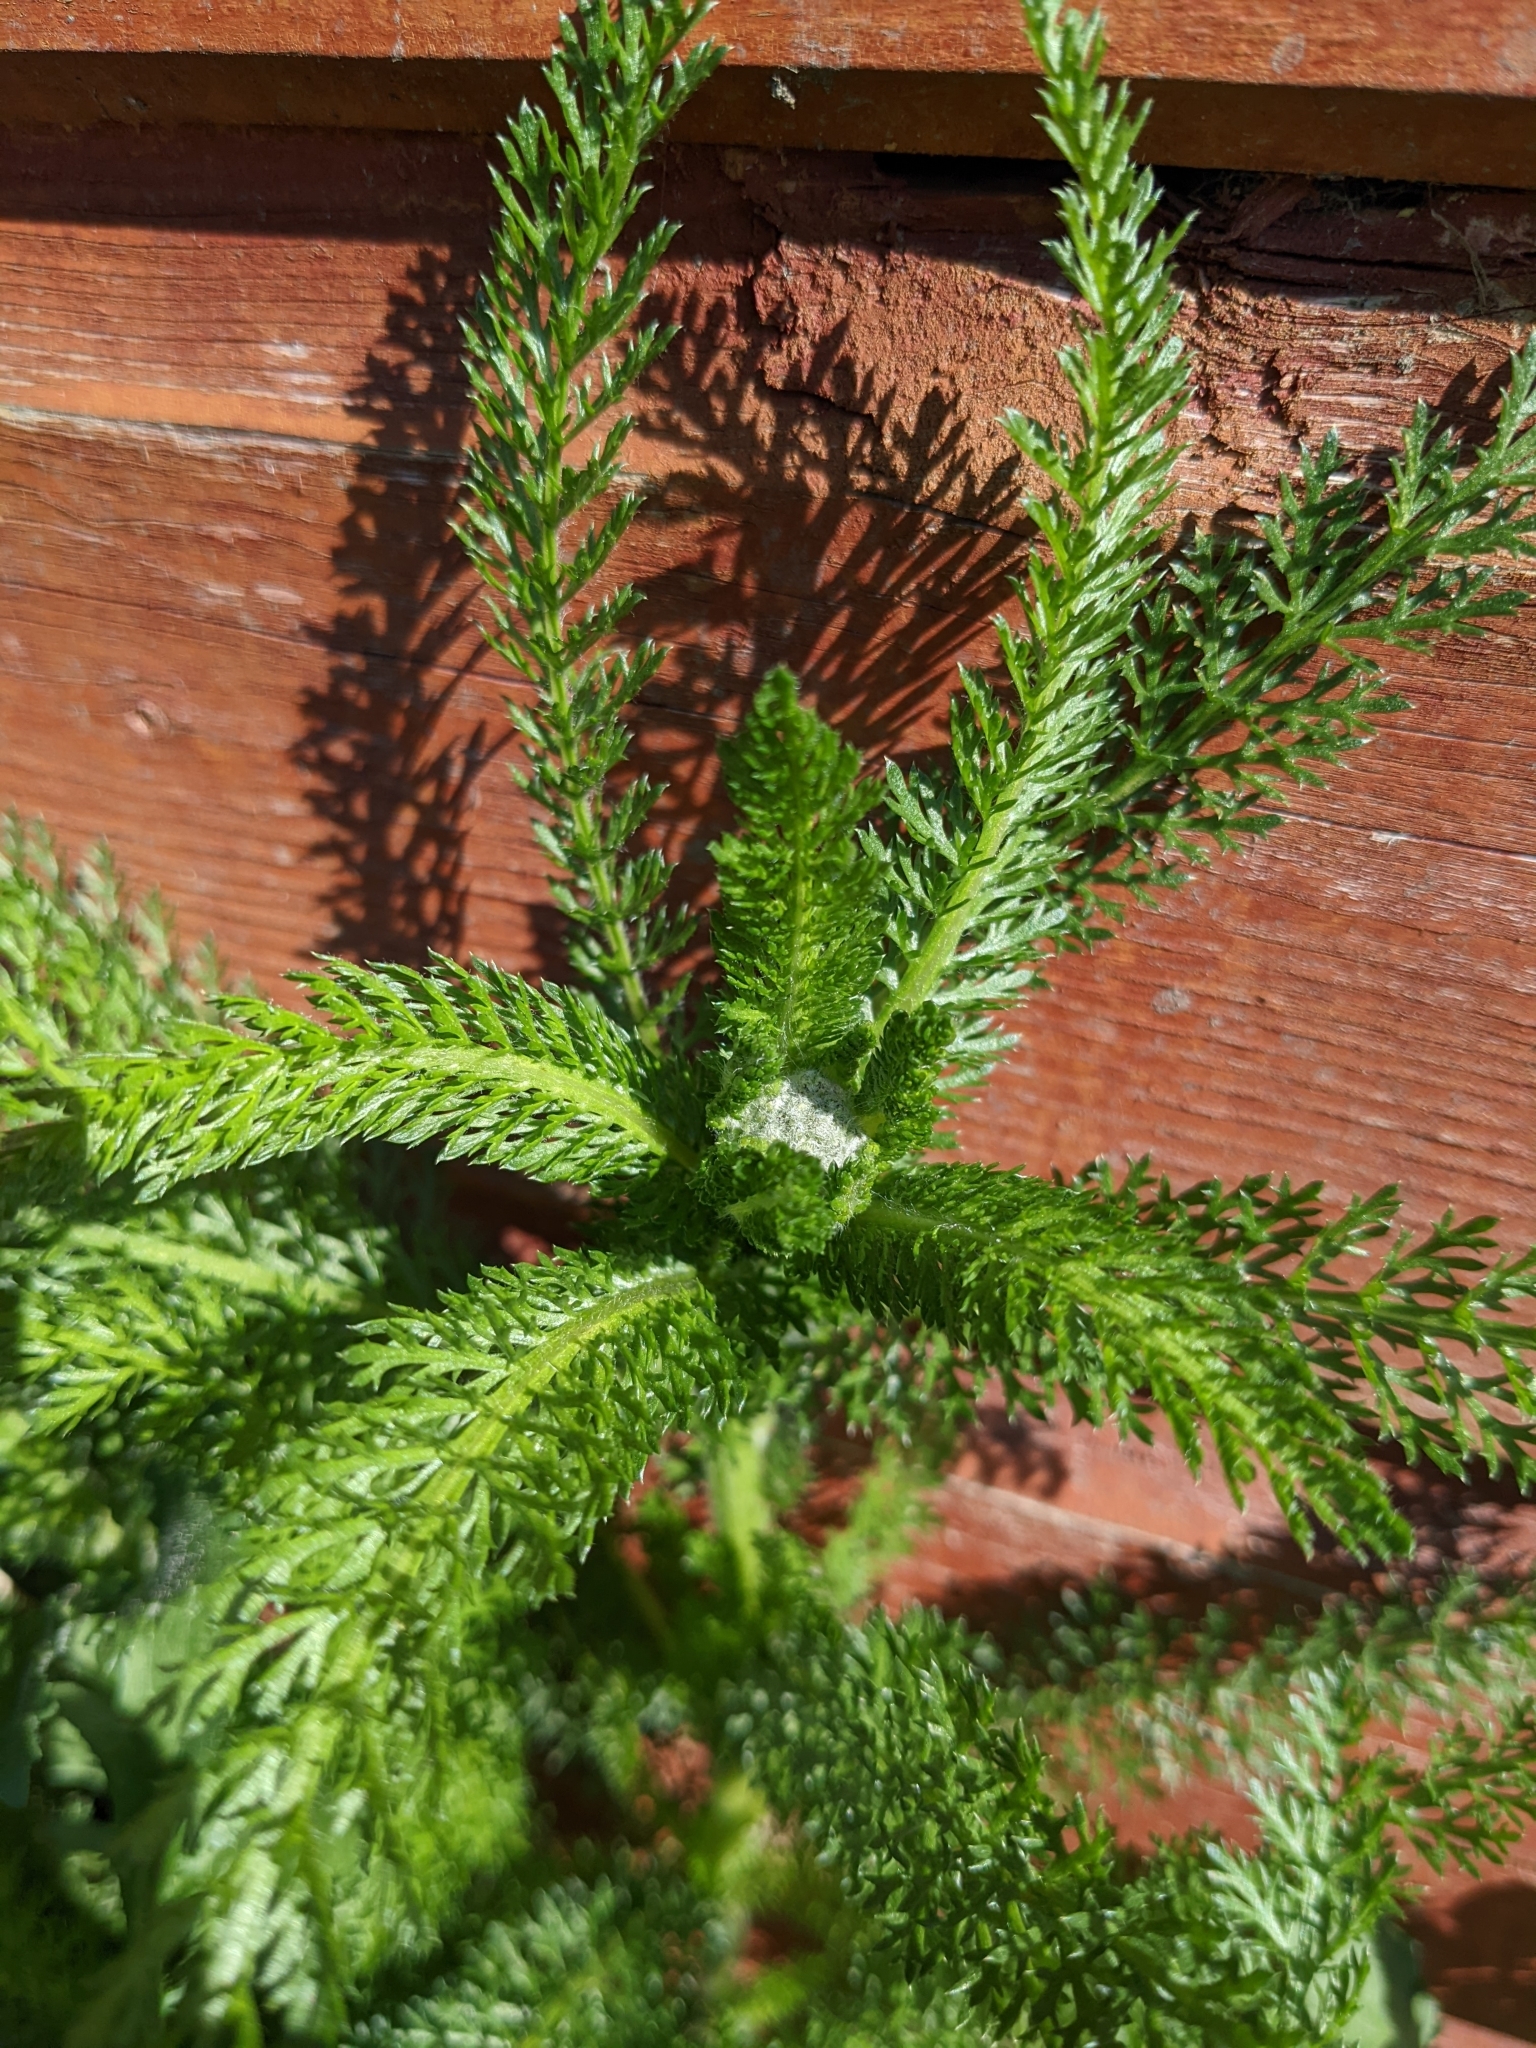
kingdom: Plantae
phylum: Tracheophyta
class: Magnoliopsida
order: Asterales
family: Asteraceae
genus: Achillea
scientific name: Achillea millefolium
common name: Yarrow
